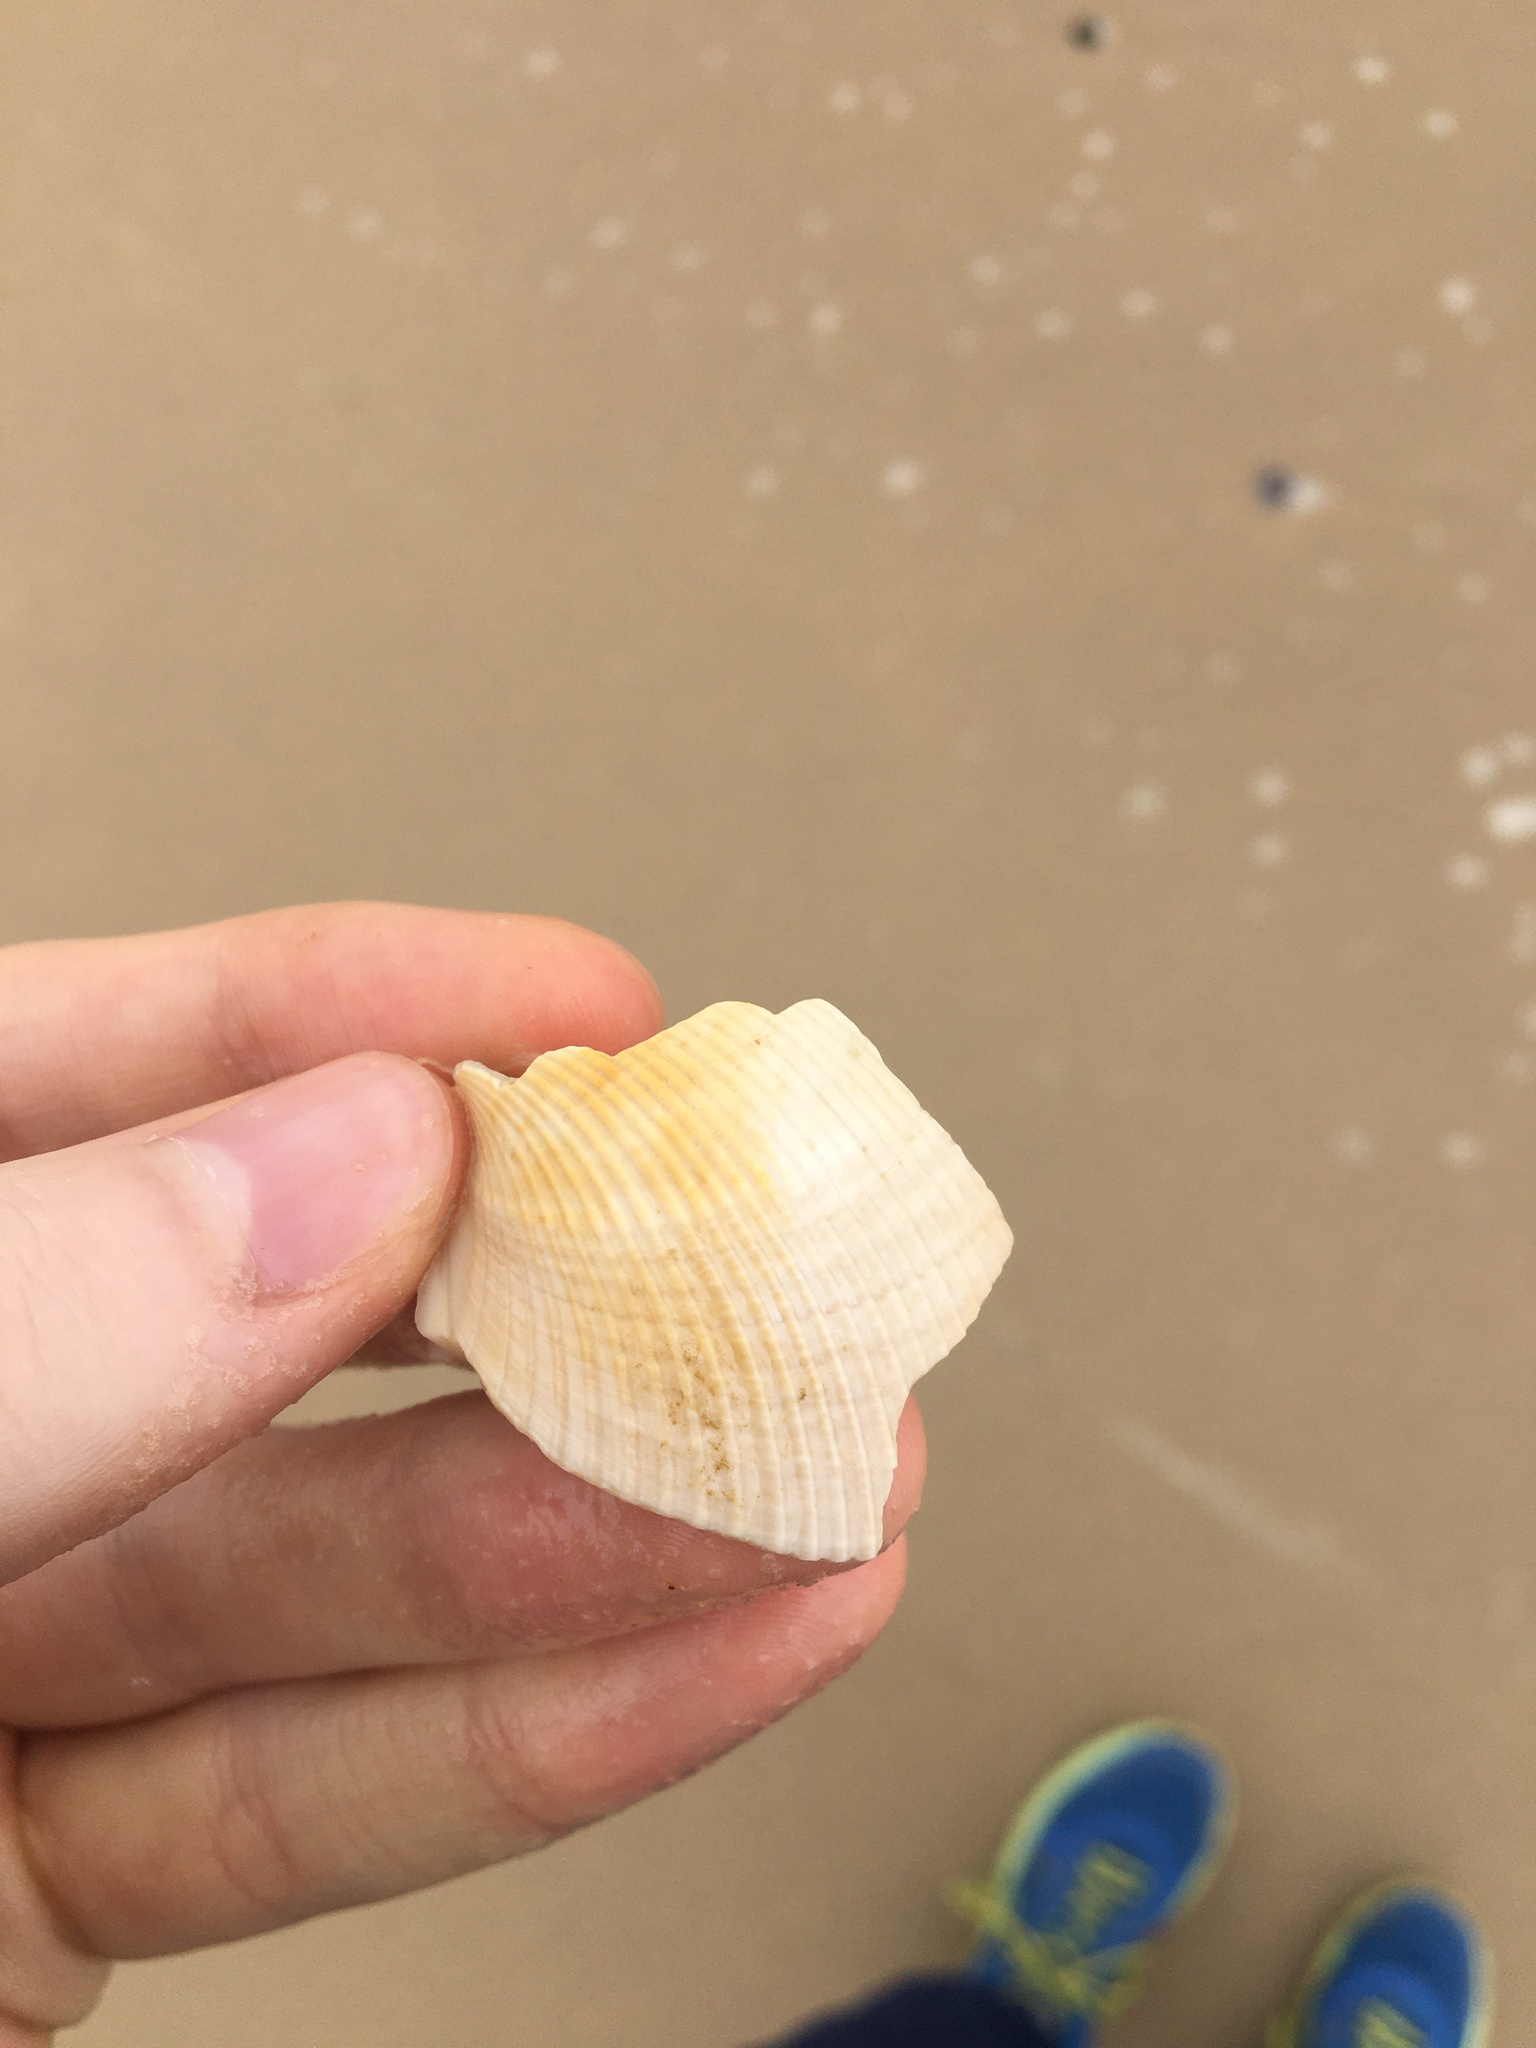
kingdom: Animalia
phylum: Mollusca
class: Bivalvia
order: Cardiida
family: Cardiidae
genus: Vepricardium
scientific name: Vepricardium multispinosum
